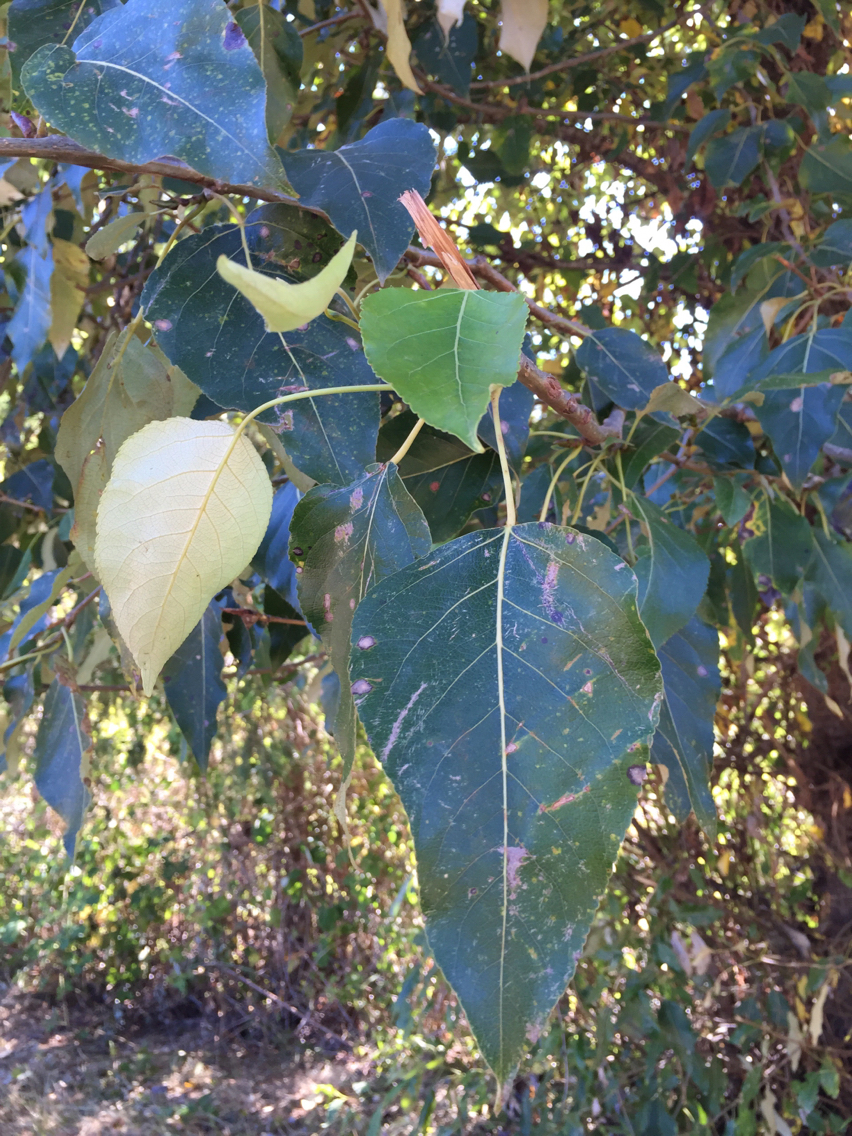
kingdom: Plantae
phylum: Tracheophyta
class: Magnoliopsida
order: Malpighiales
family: Salicaceae
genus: Populus
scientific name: Populus trichocarpa
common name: Black cottonwood
